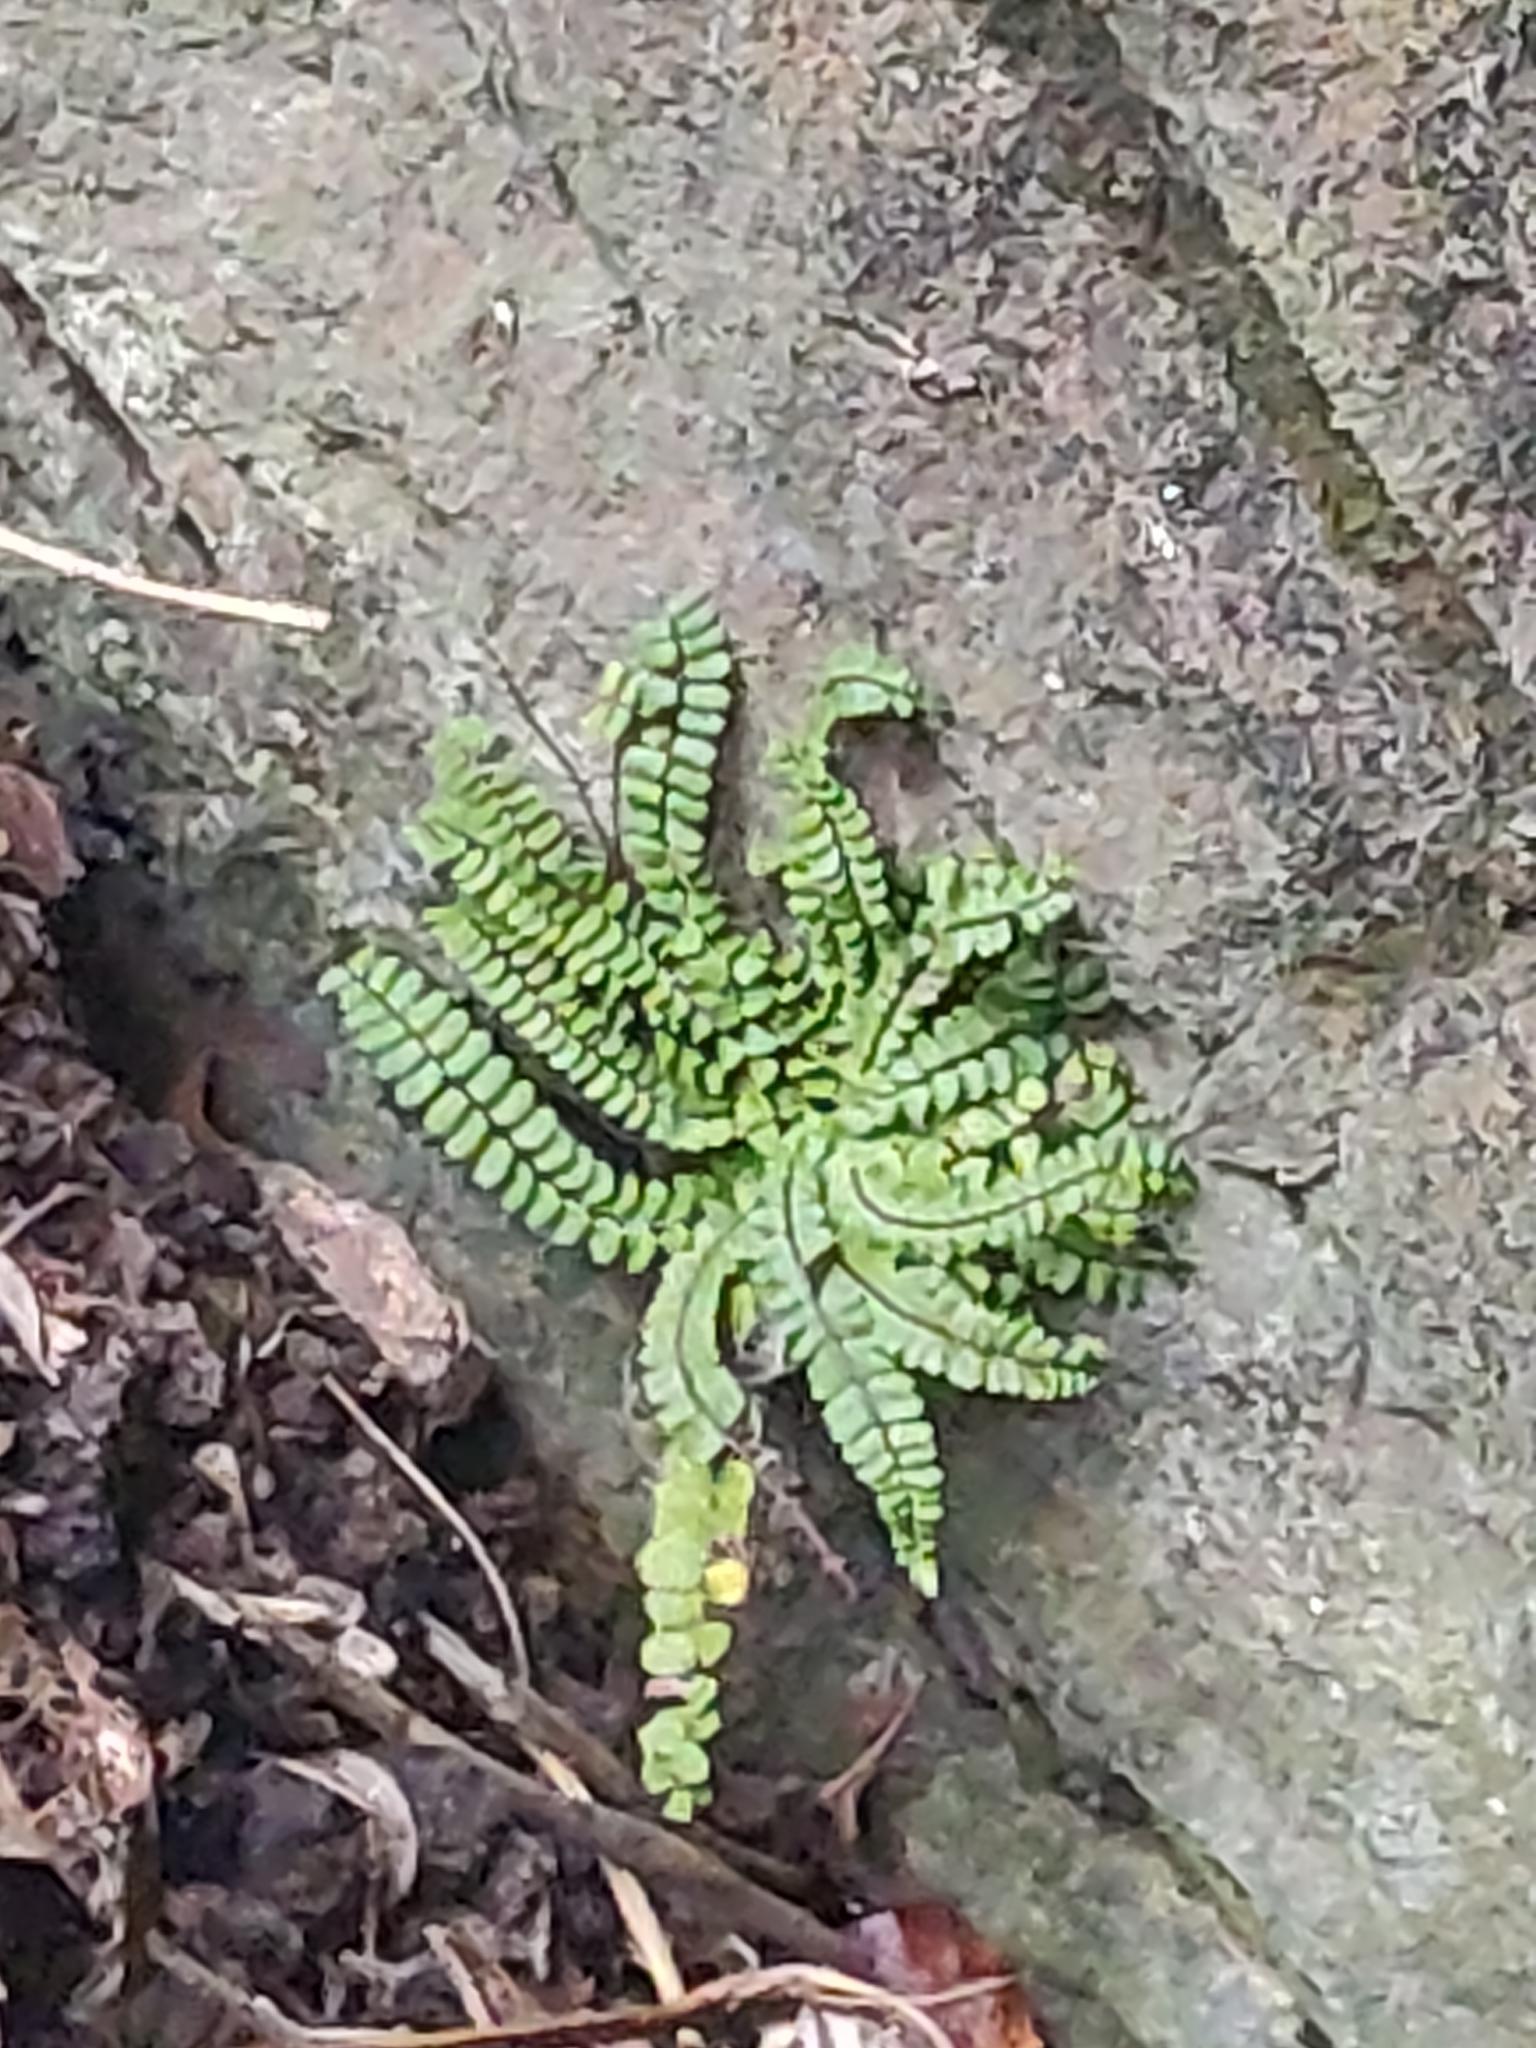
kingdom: Plantae
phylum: Tracheophyta
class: Polypodiopsida
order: Polypodiales
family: Aspleniaceae
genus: Asplenium
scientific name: Asplenium trichomanes
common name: Maidenhair spleenwort
